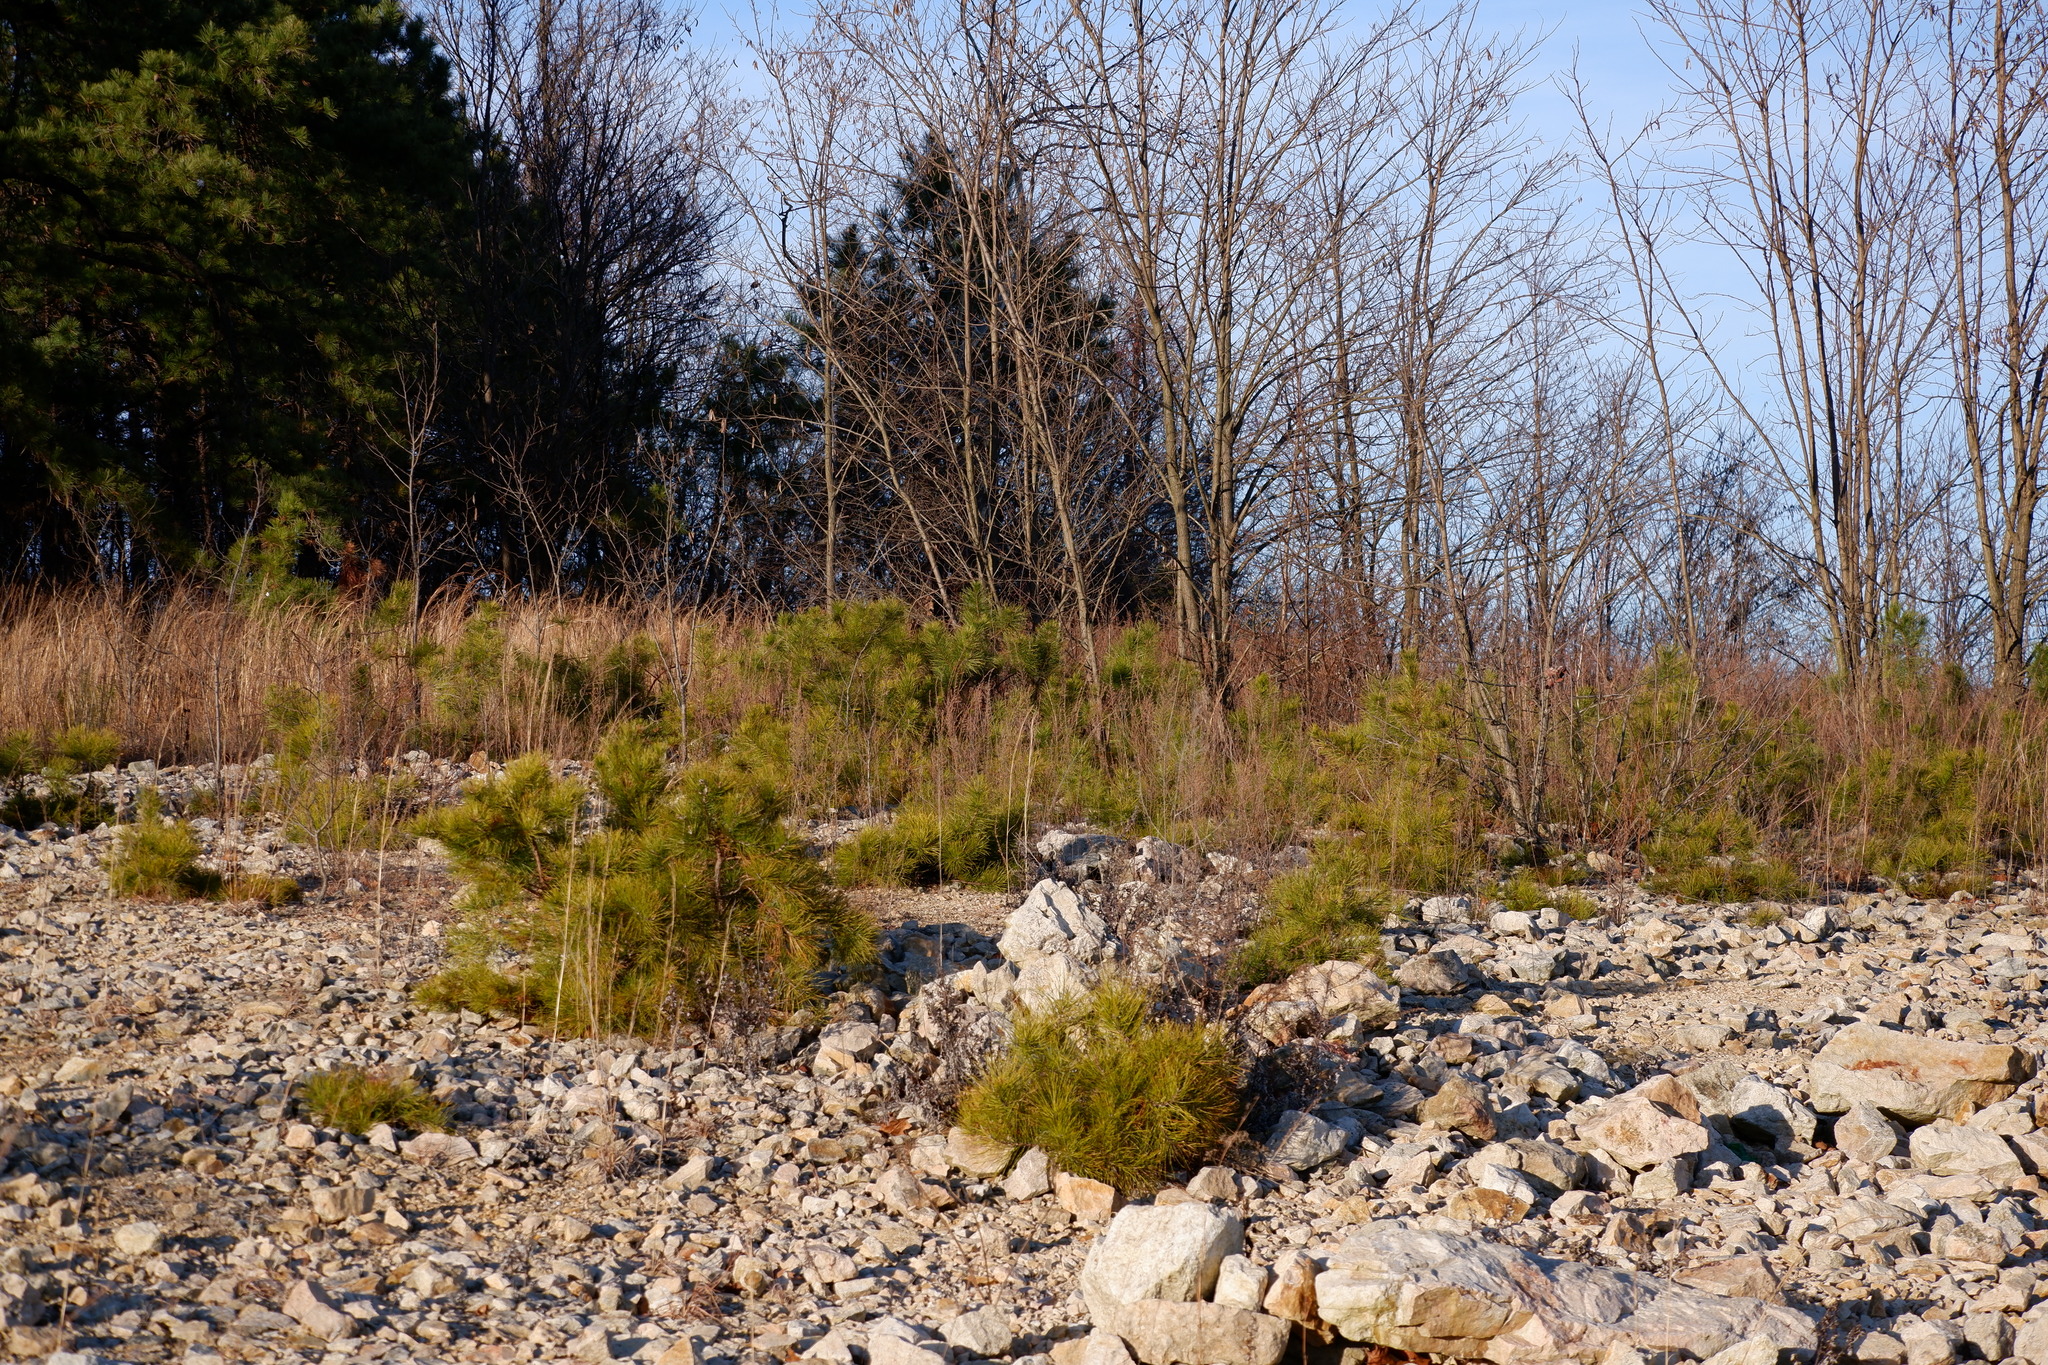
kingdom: Plantae
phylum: Tracheophyta
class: Pinopsida
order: Pinales
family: Pinaceae
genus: Pinus
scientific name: Pinus rigida
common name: Pitch pine
